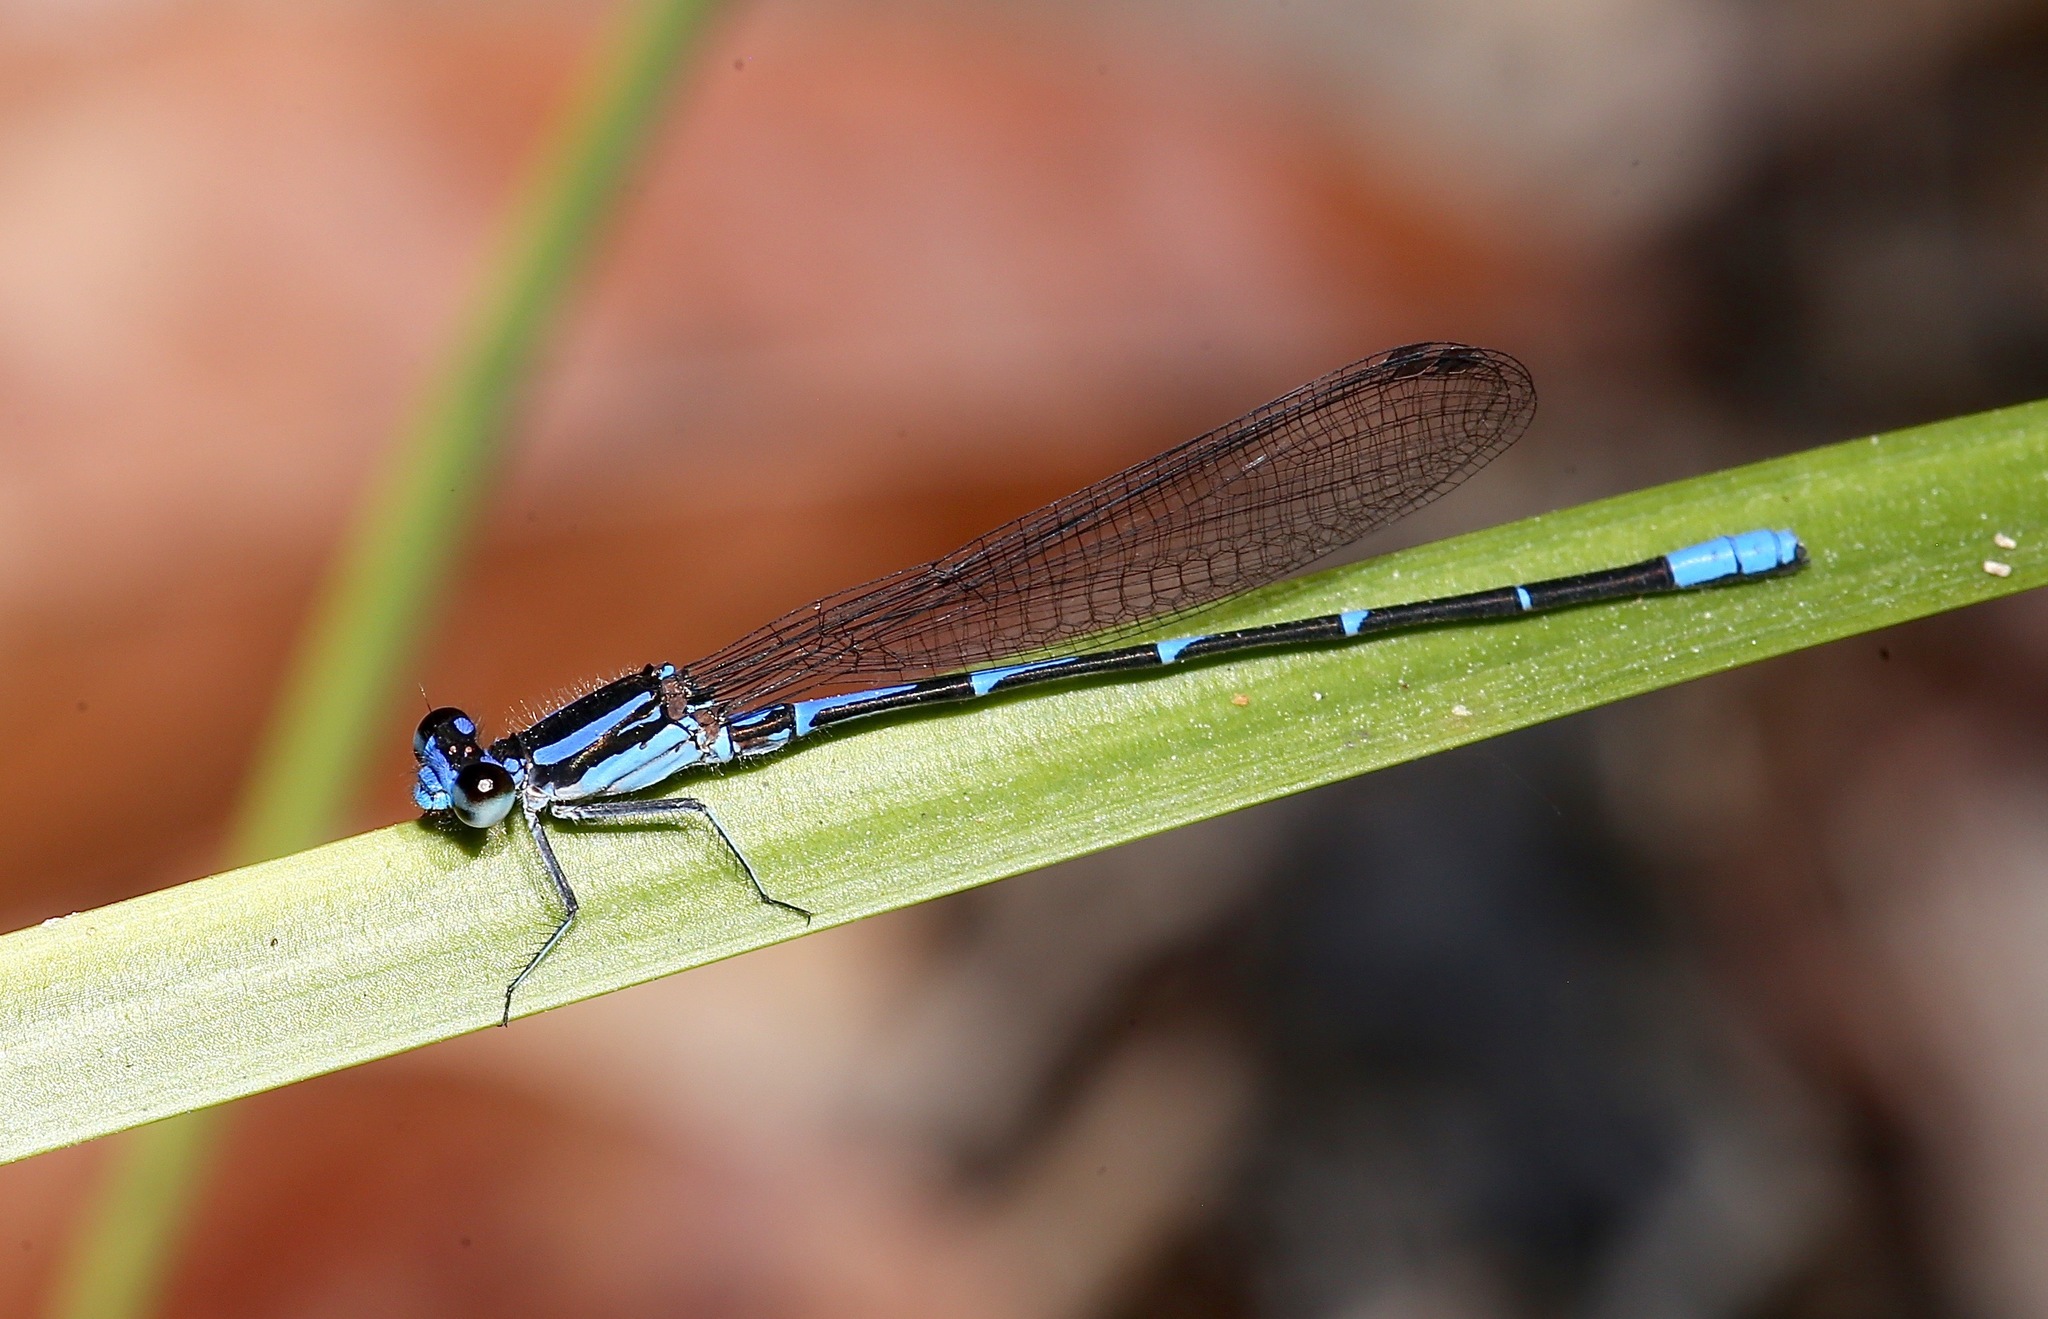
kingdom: Animalia
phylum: Arthropoda
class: Insecta
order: Odonata
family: Coenagrionidae
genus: Argia
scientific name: Argia oculata
